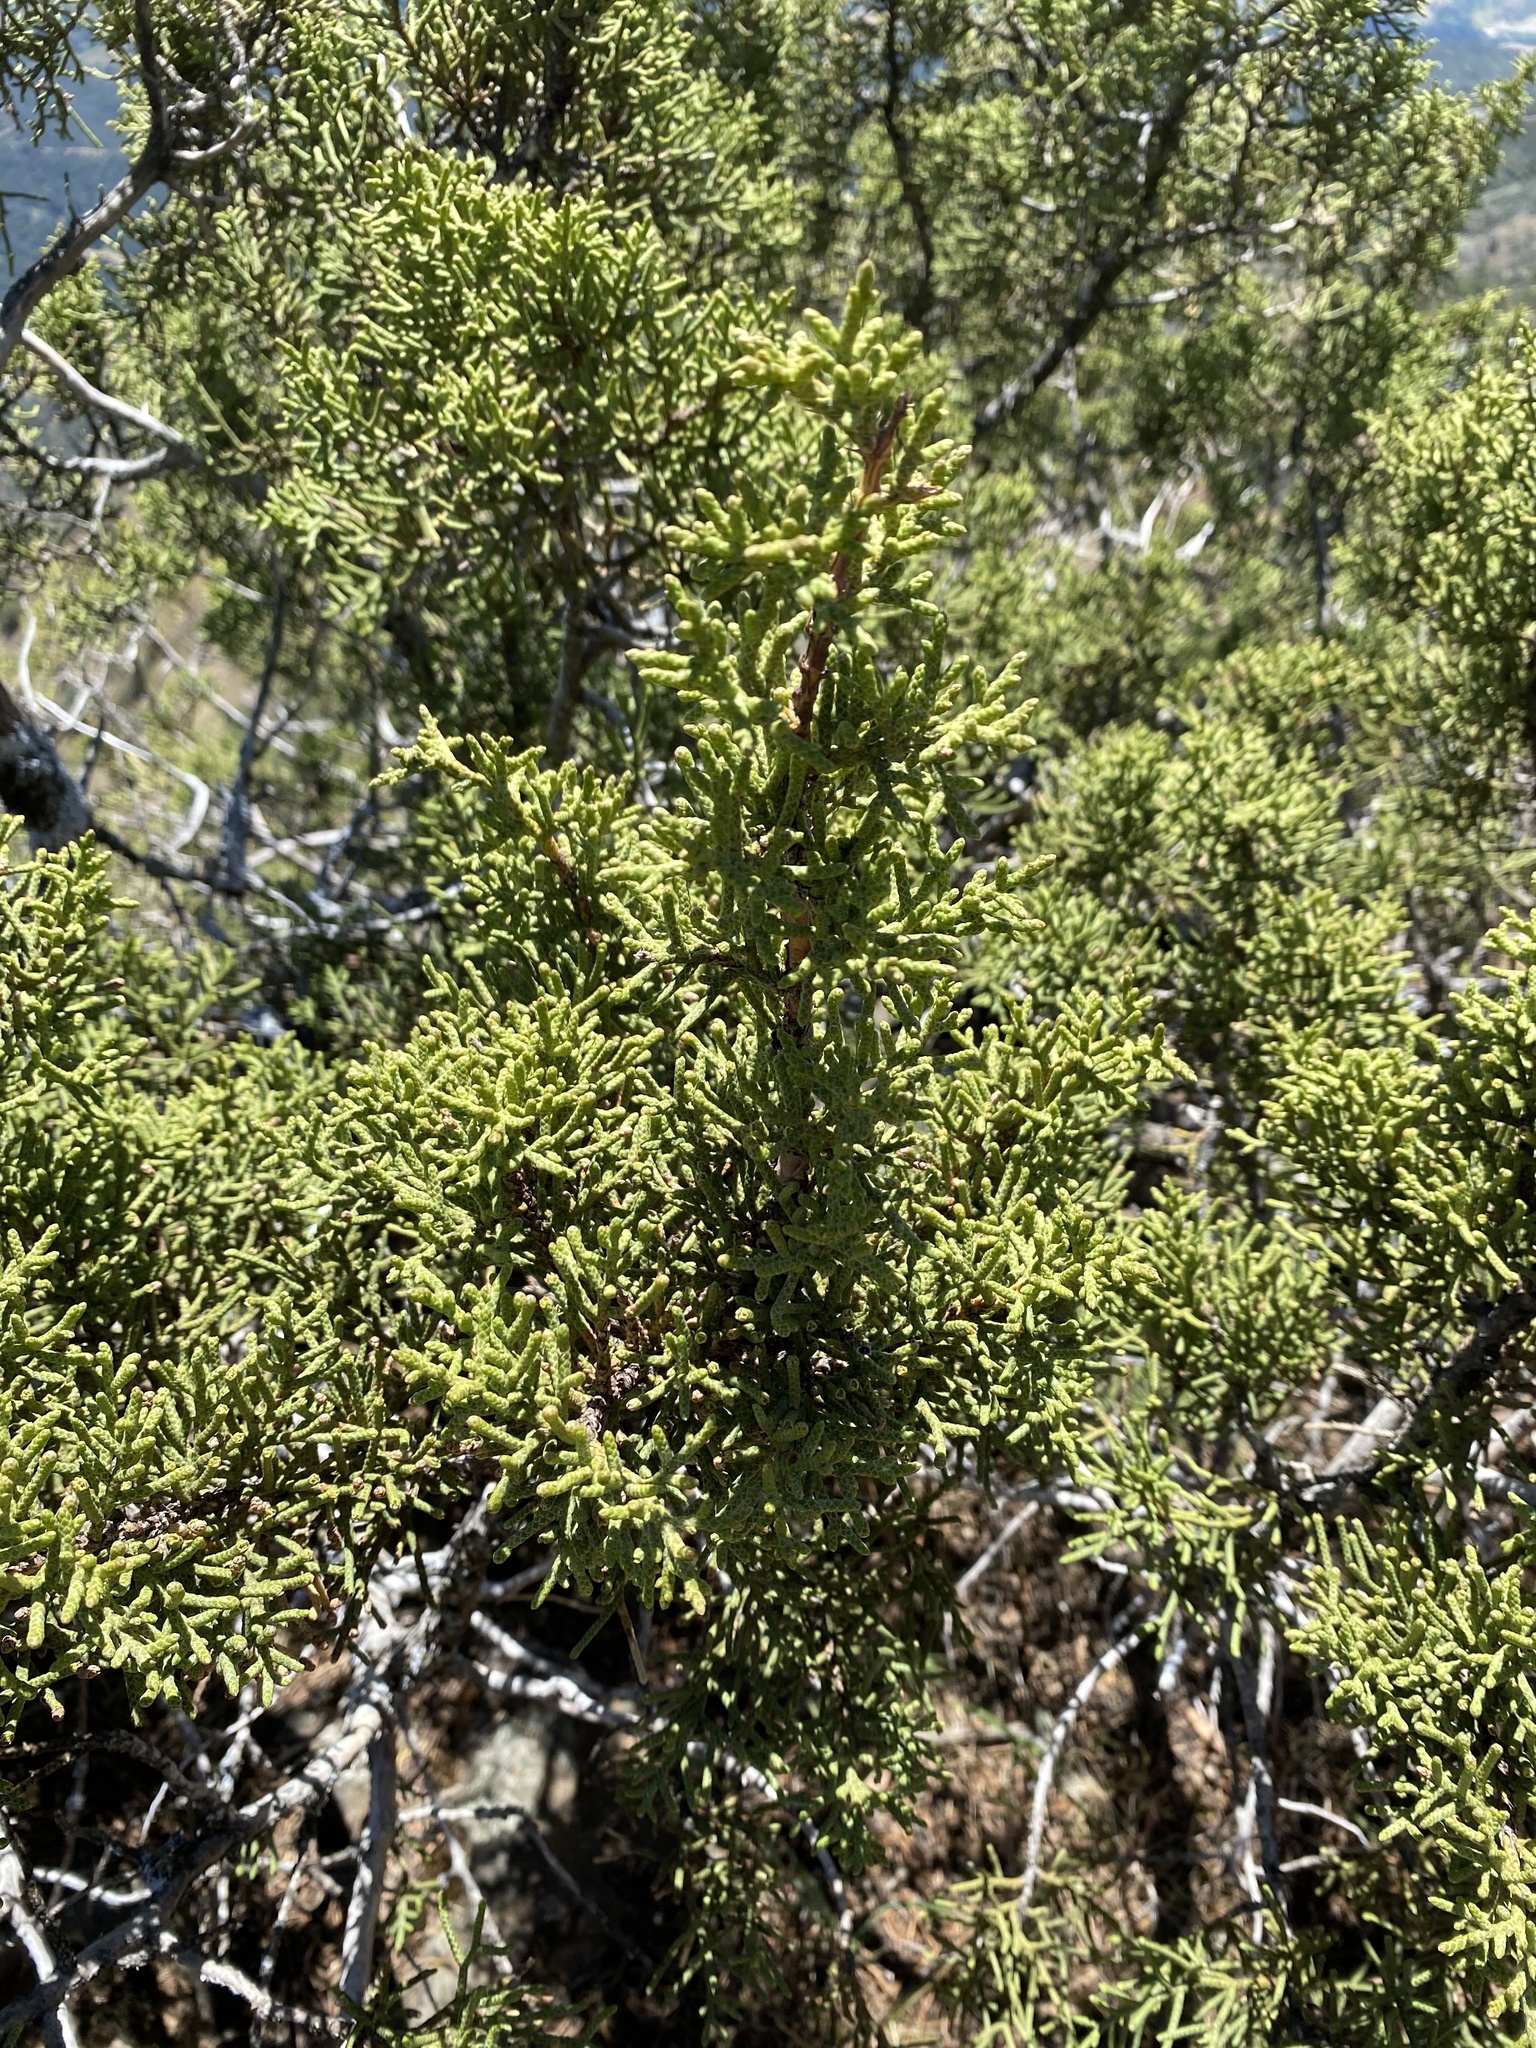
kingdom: Plantae
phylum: Tracheophyta
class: Pinopsida
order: Pinales
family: Cupressaceae
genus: Juniperus
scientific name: Juniperus californica
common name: California juniper
